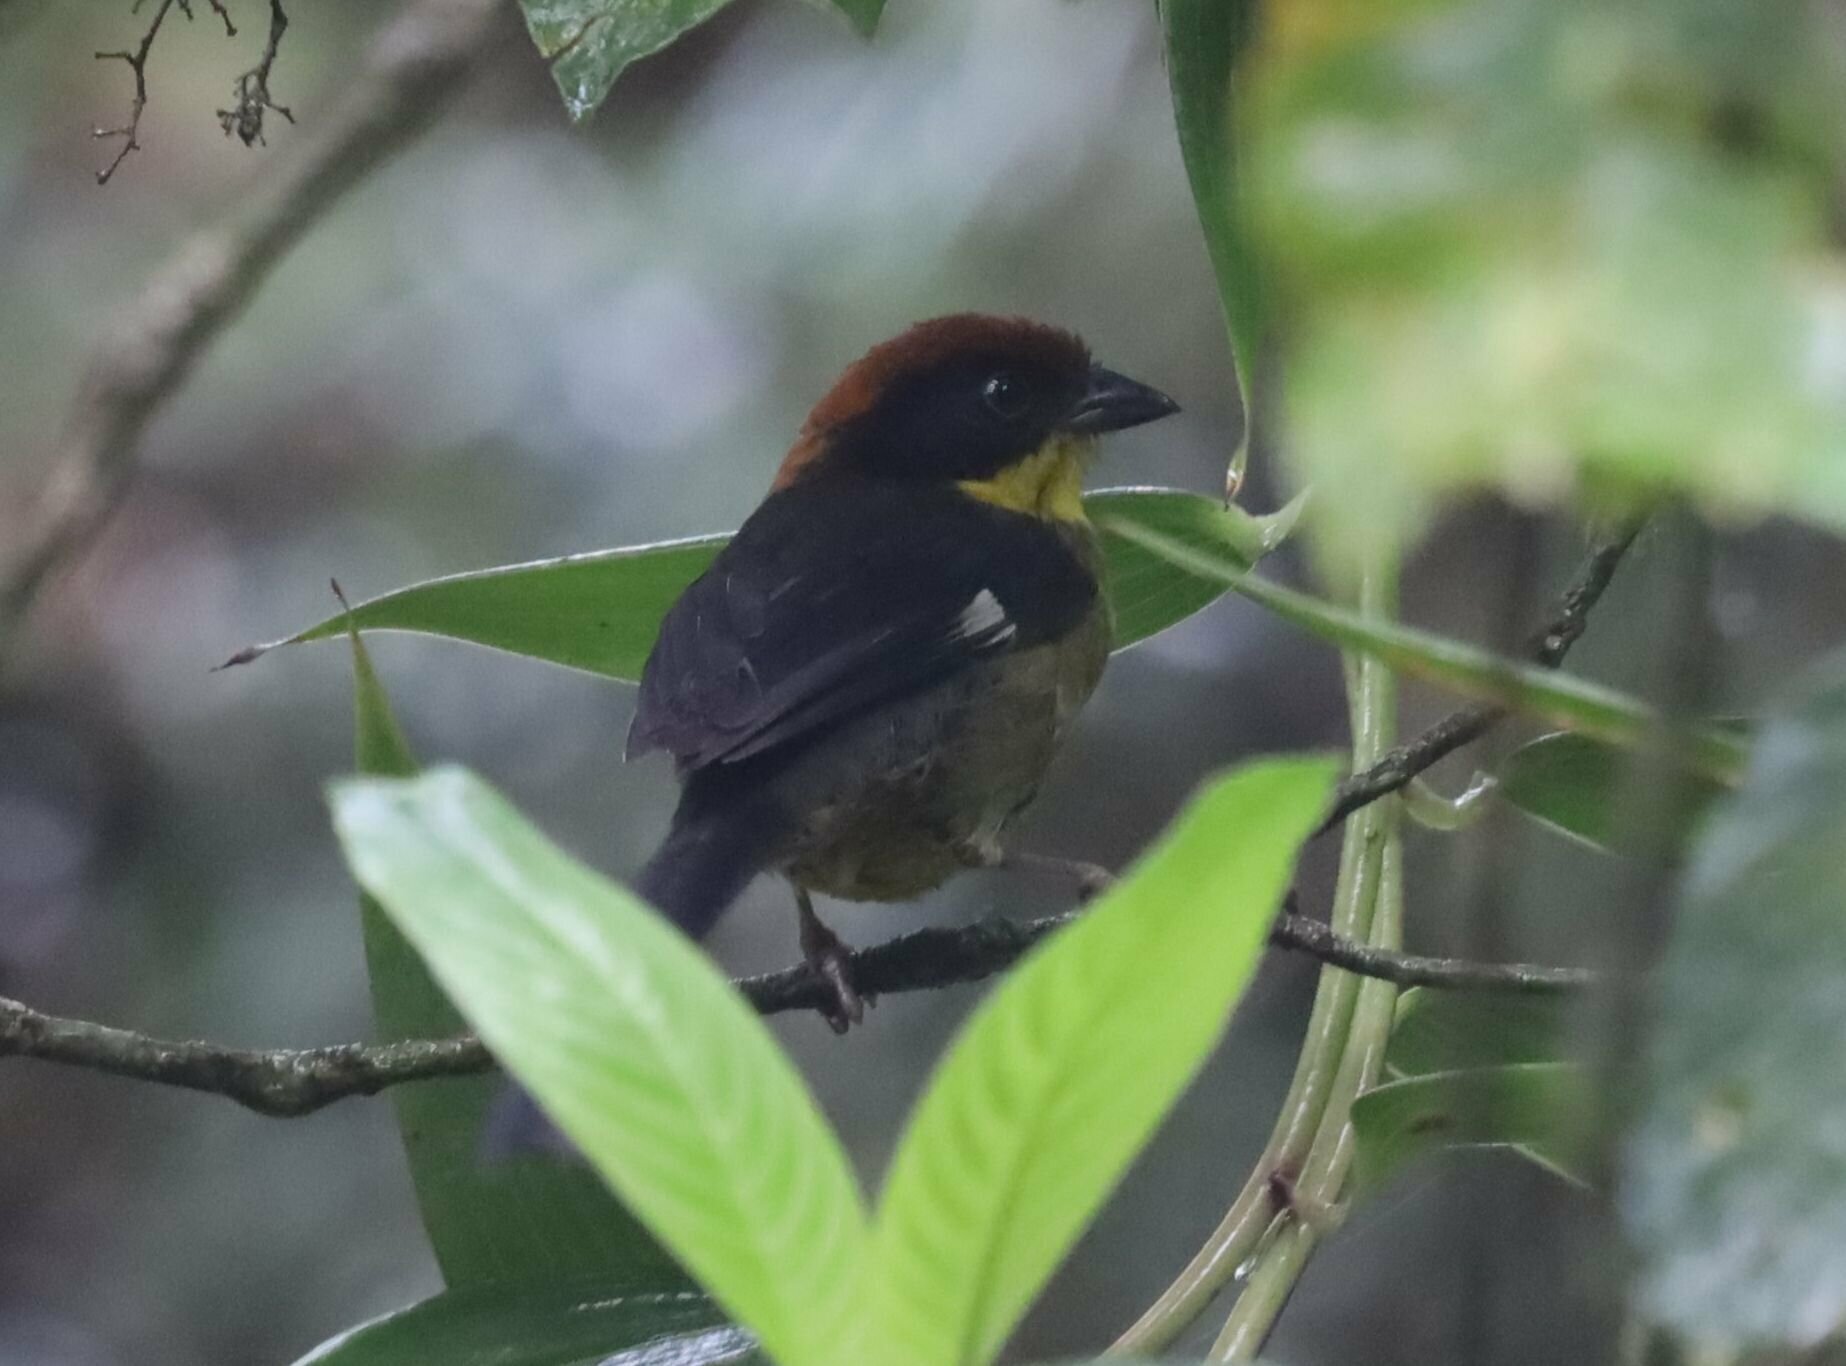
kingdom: Animalia
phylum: Chordata
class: Aves
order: Passeriformes
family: Passerellidae
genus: Atlapetes
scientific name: Atlapetes latinuchus
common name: Yellow-breasted brushfinch
